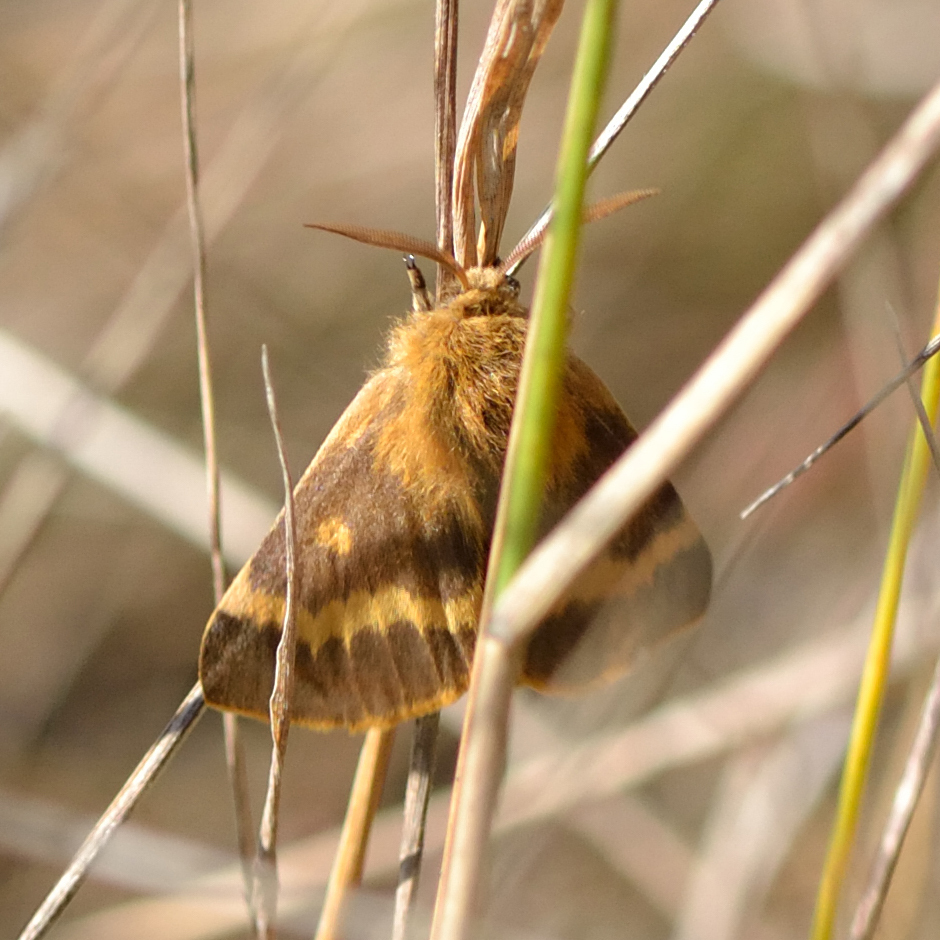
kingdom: Animalia
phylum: Arthropoda
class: Insecta
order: Lepidoptera
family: Brahmaeidae
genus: Lemonia
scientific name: Lemonia dumi
